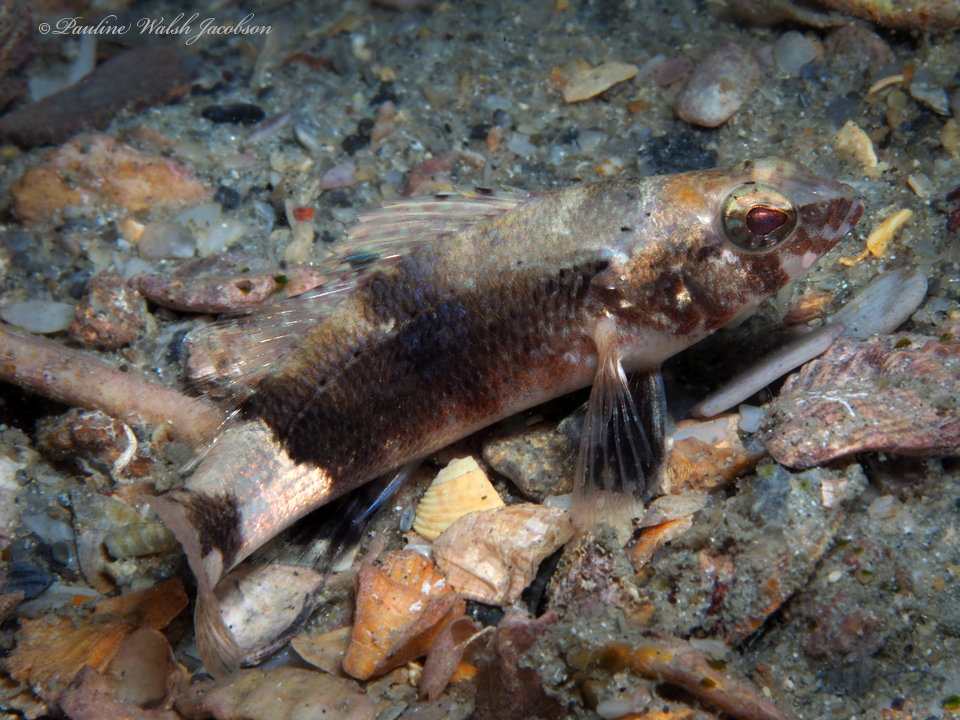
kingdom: Animalia
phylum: Chordata
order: Perciformes
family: Serranidae
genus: Serraniculus
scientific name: Serraniculus pumilio
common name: Pygmy sea bass
